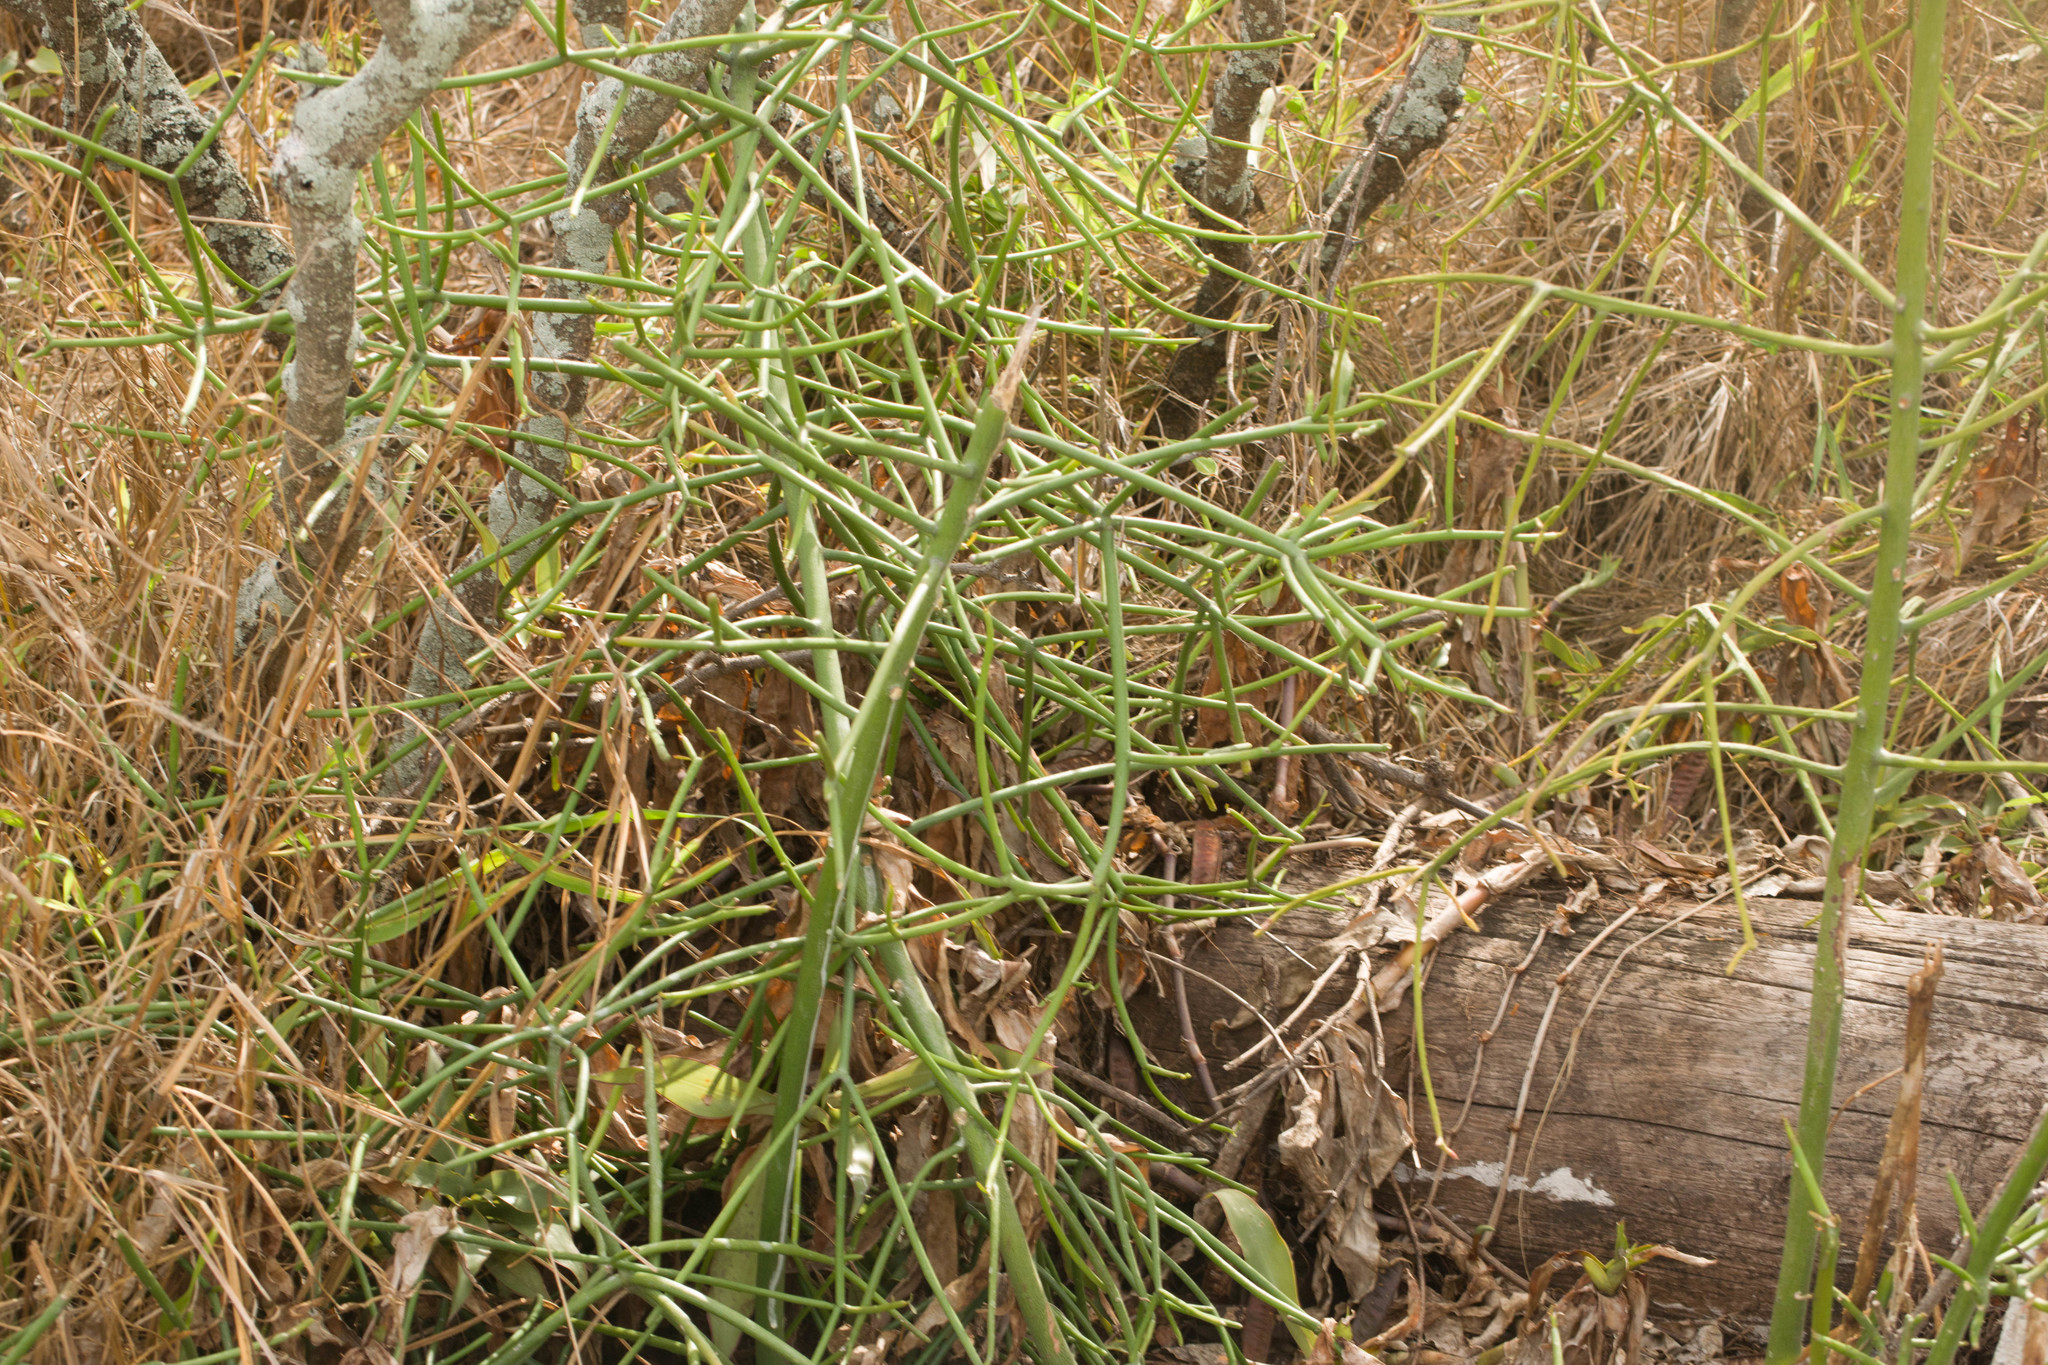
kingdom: Plantae
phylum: Tracheophyta
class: Magnoliopsida
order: Malpighiales
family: Euphorbiaceae
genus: Euphorbia
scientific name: Euphorbia tirucalli
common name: Indiantree spurge
